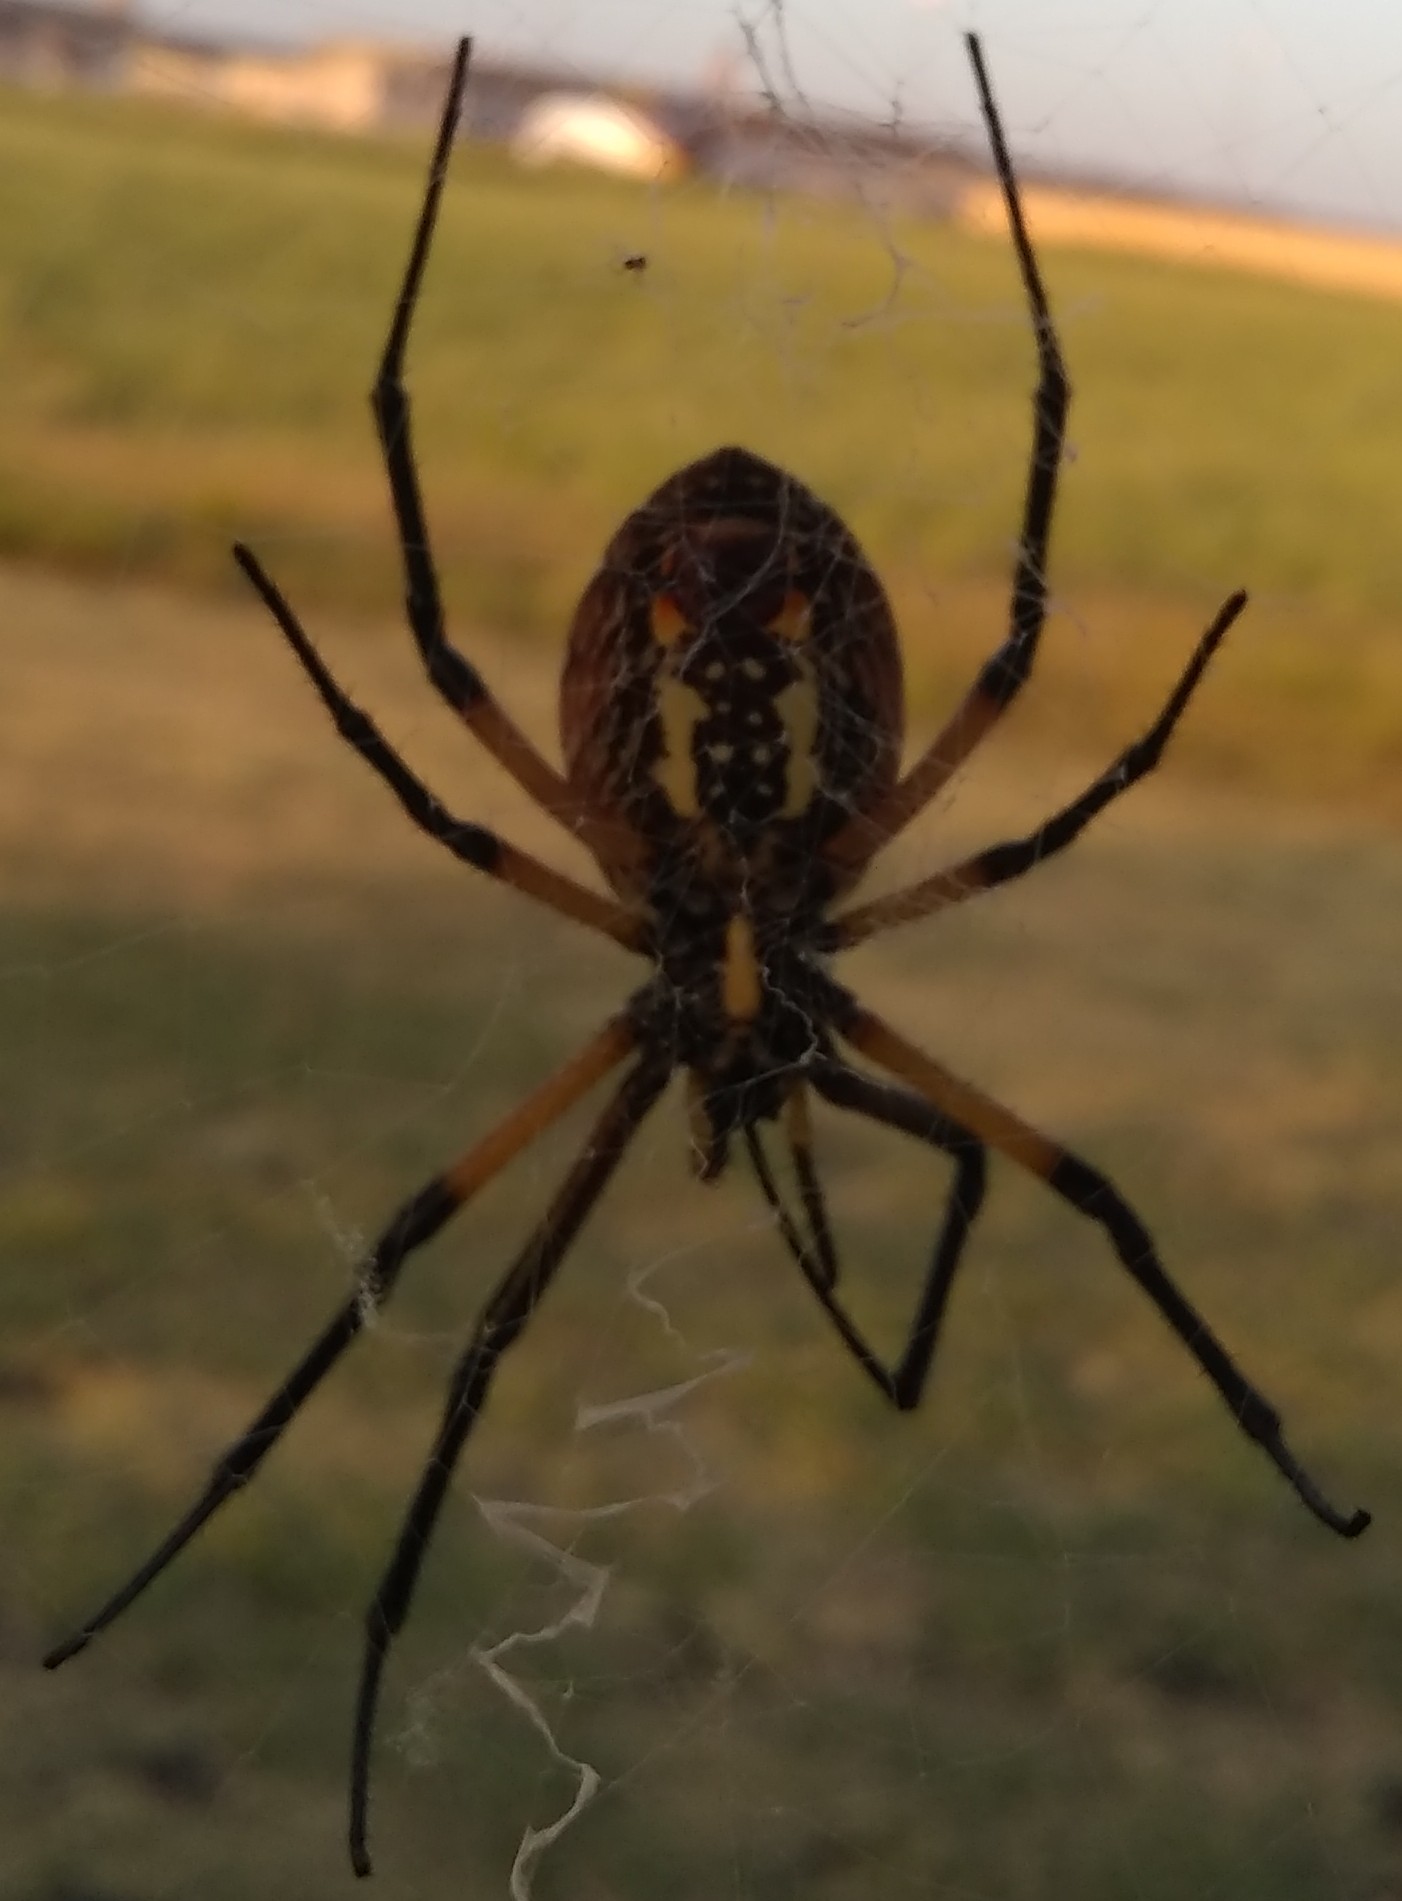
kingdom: Animalia
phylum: Arthropoda
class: Arachnida
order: Araneae
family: Araneidae
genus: Argiope
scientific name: Argiope aurantia
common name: Orb weavers
